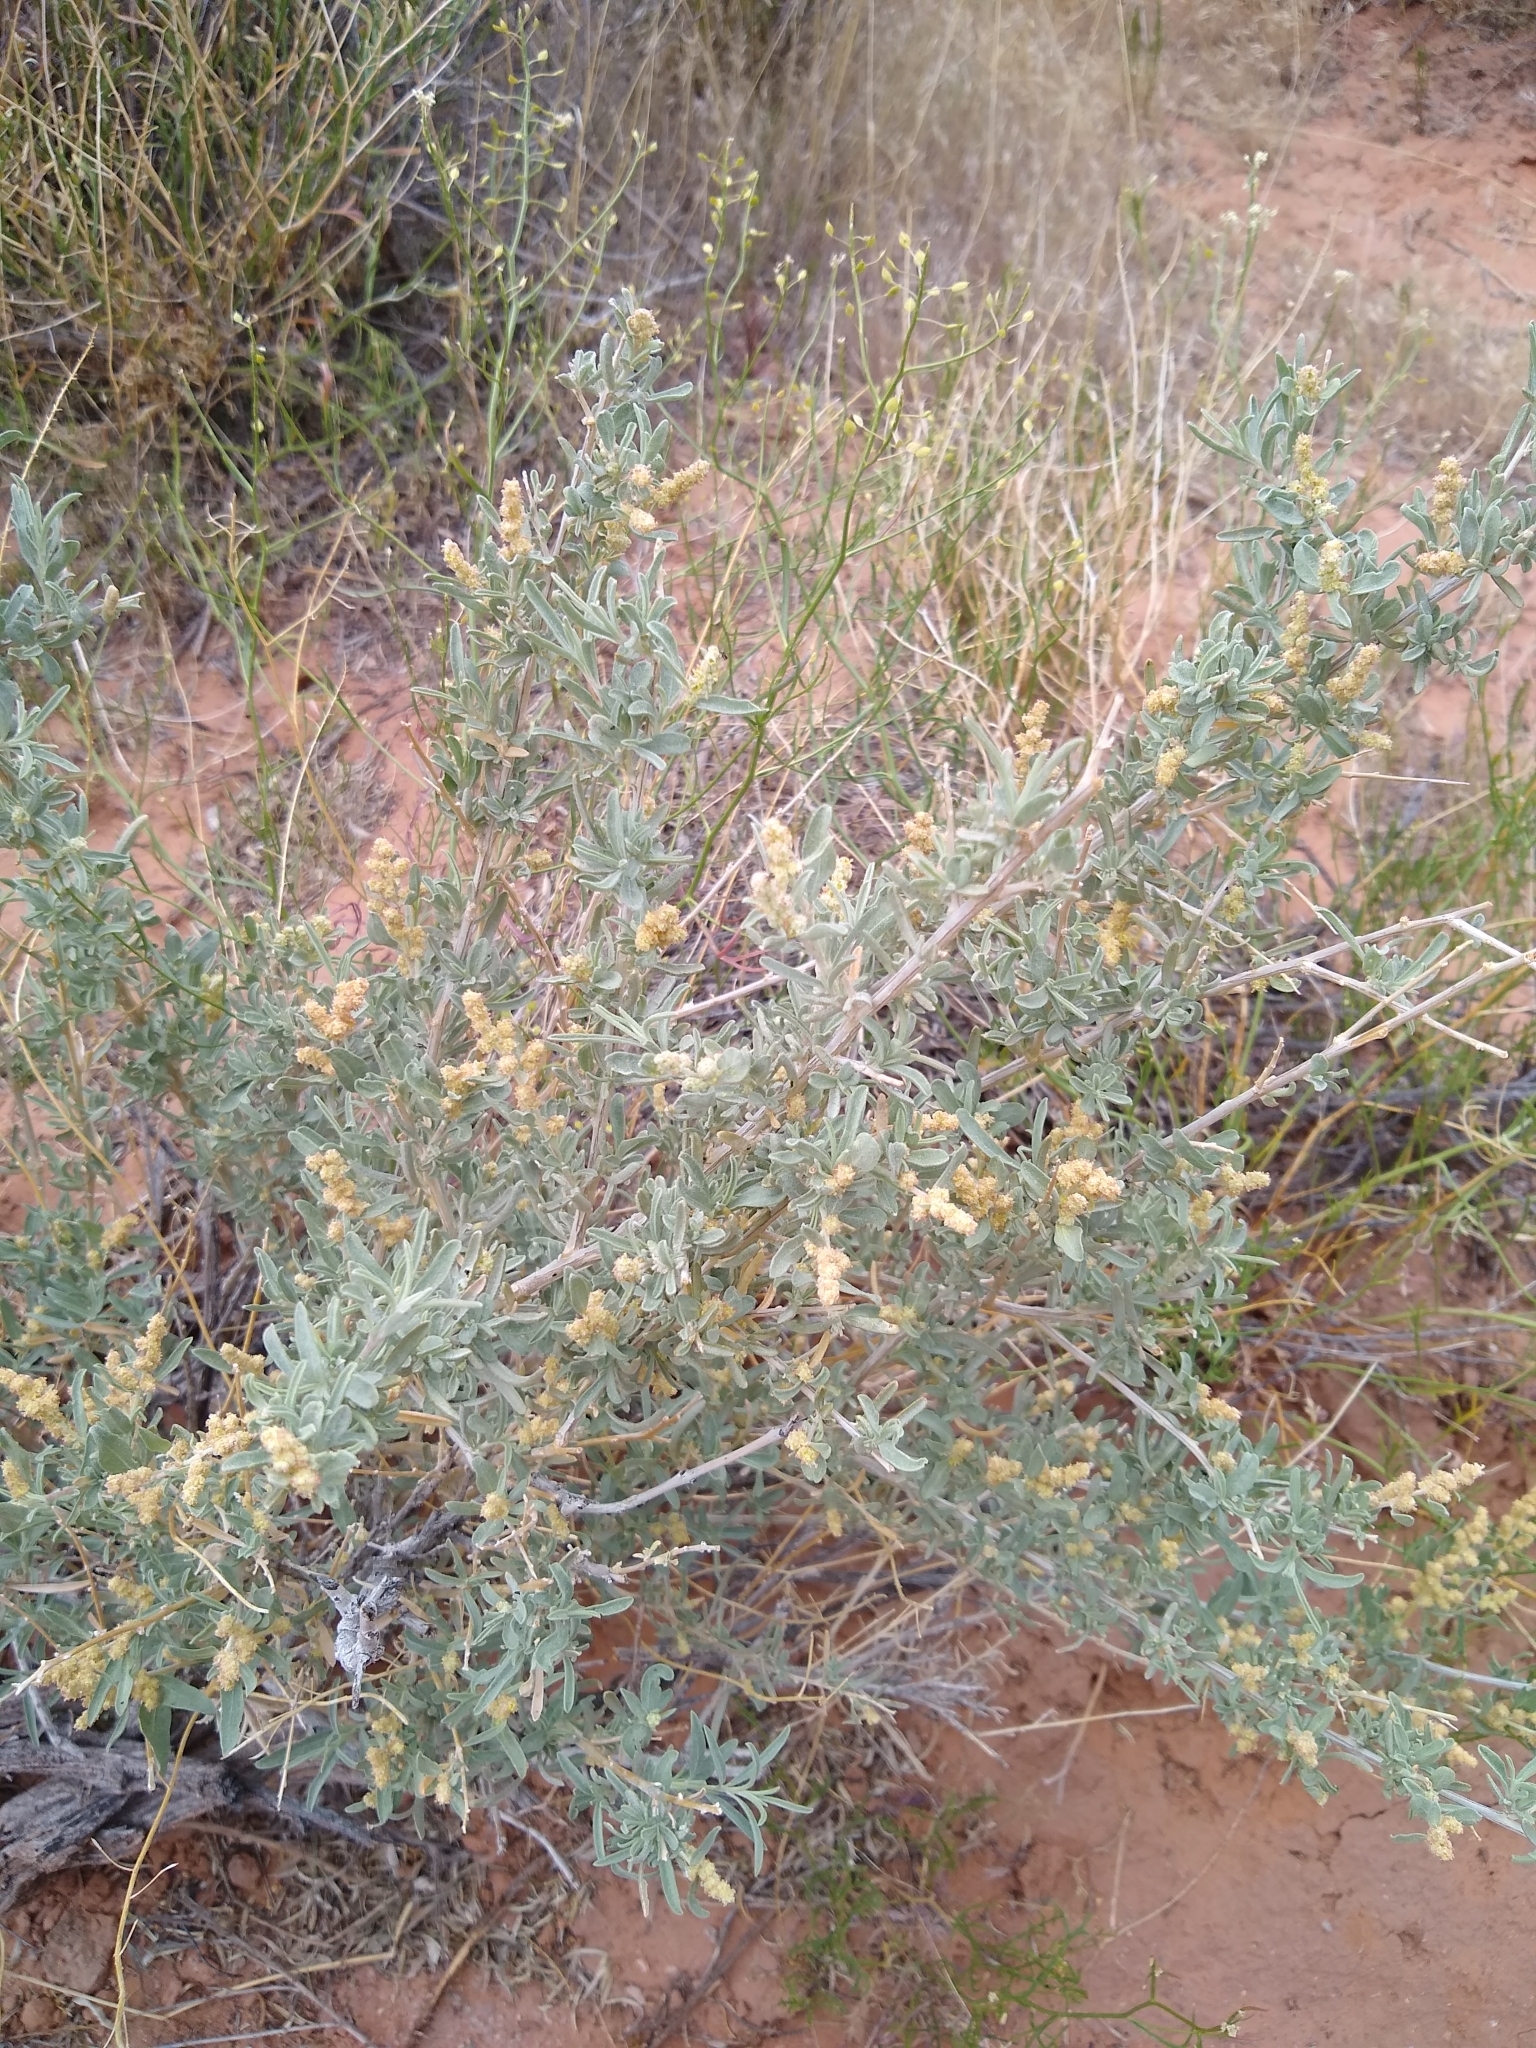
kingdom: Plantae
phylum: Tracheophyta
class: Magnoliopsida
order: Caryophyllales
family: Amaranthaceae
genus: Atriplex
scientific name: Atriplex canescens
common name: Four-wing saltbush
